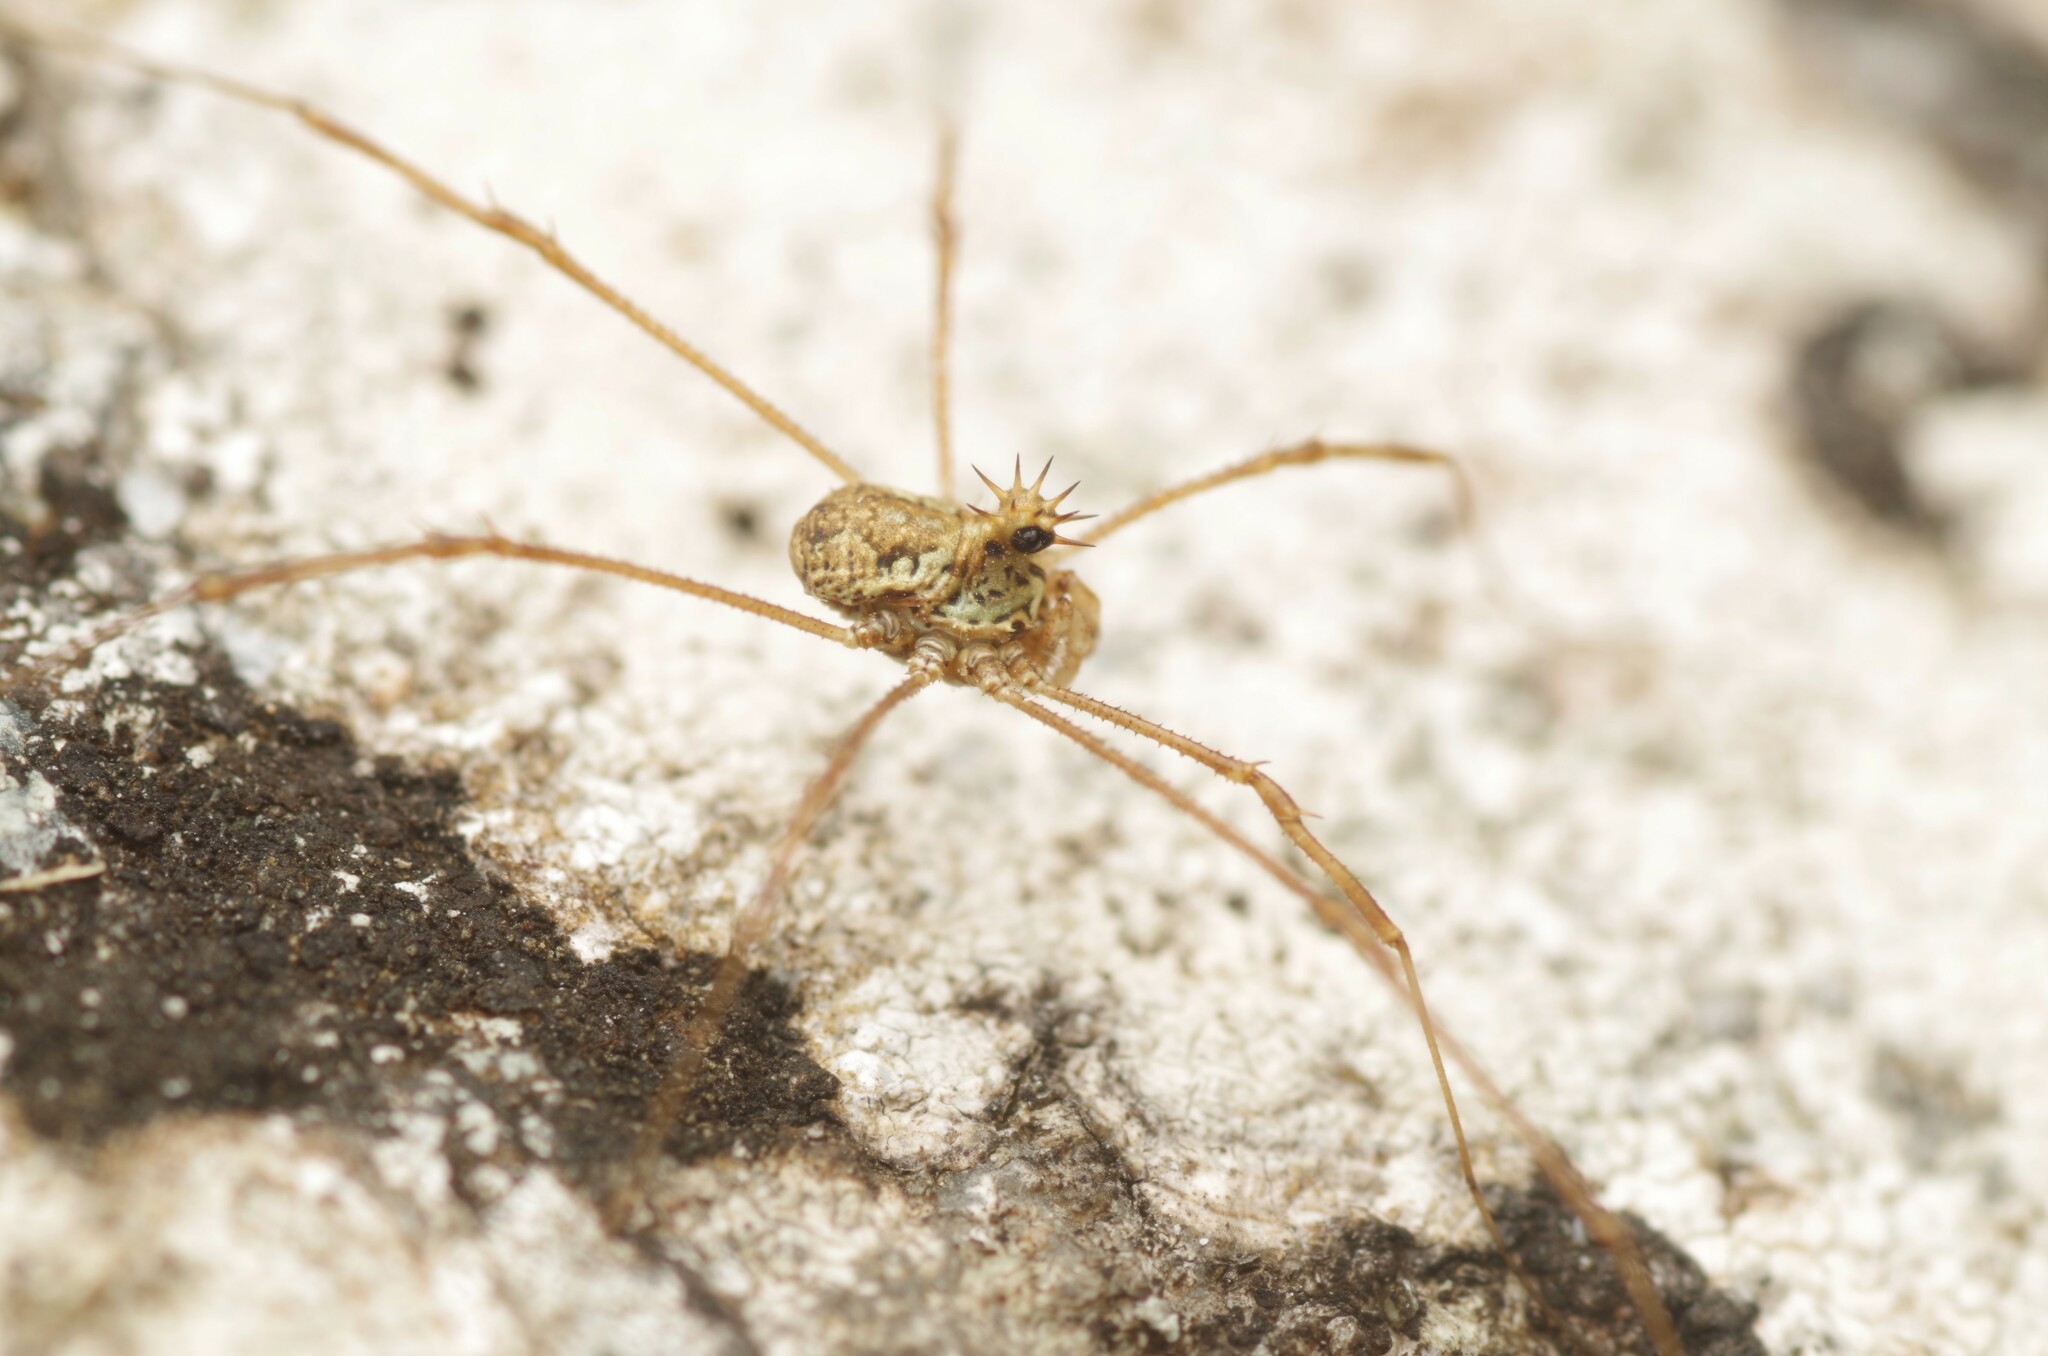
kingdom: Animalia
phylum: Arthropoda
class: Arachnida
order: Opiliones
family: Phalangiidae
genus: Megabunus
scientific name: Megabunus diadema
